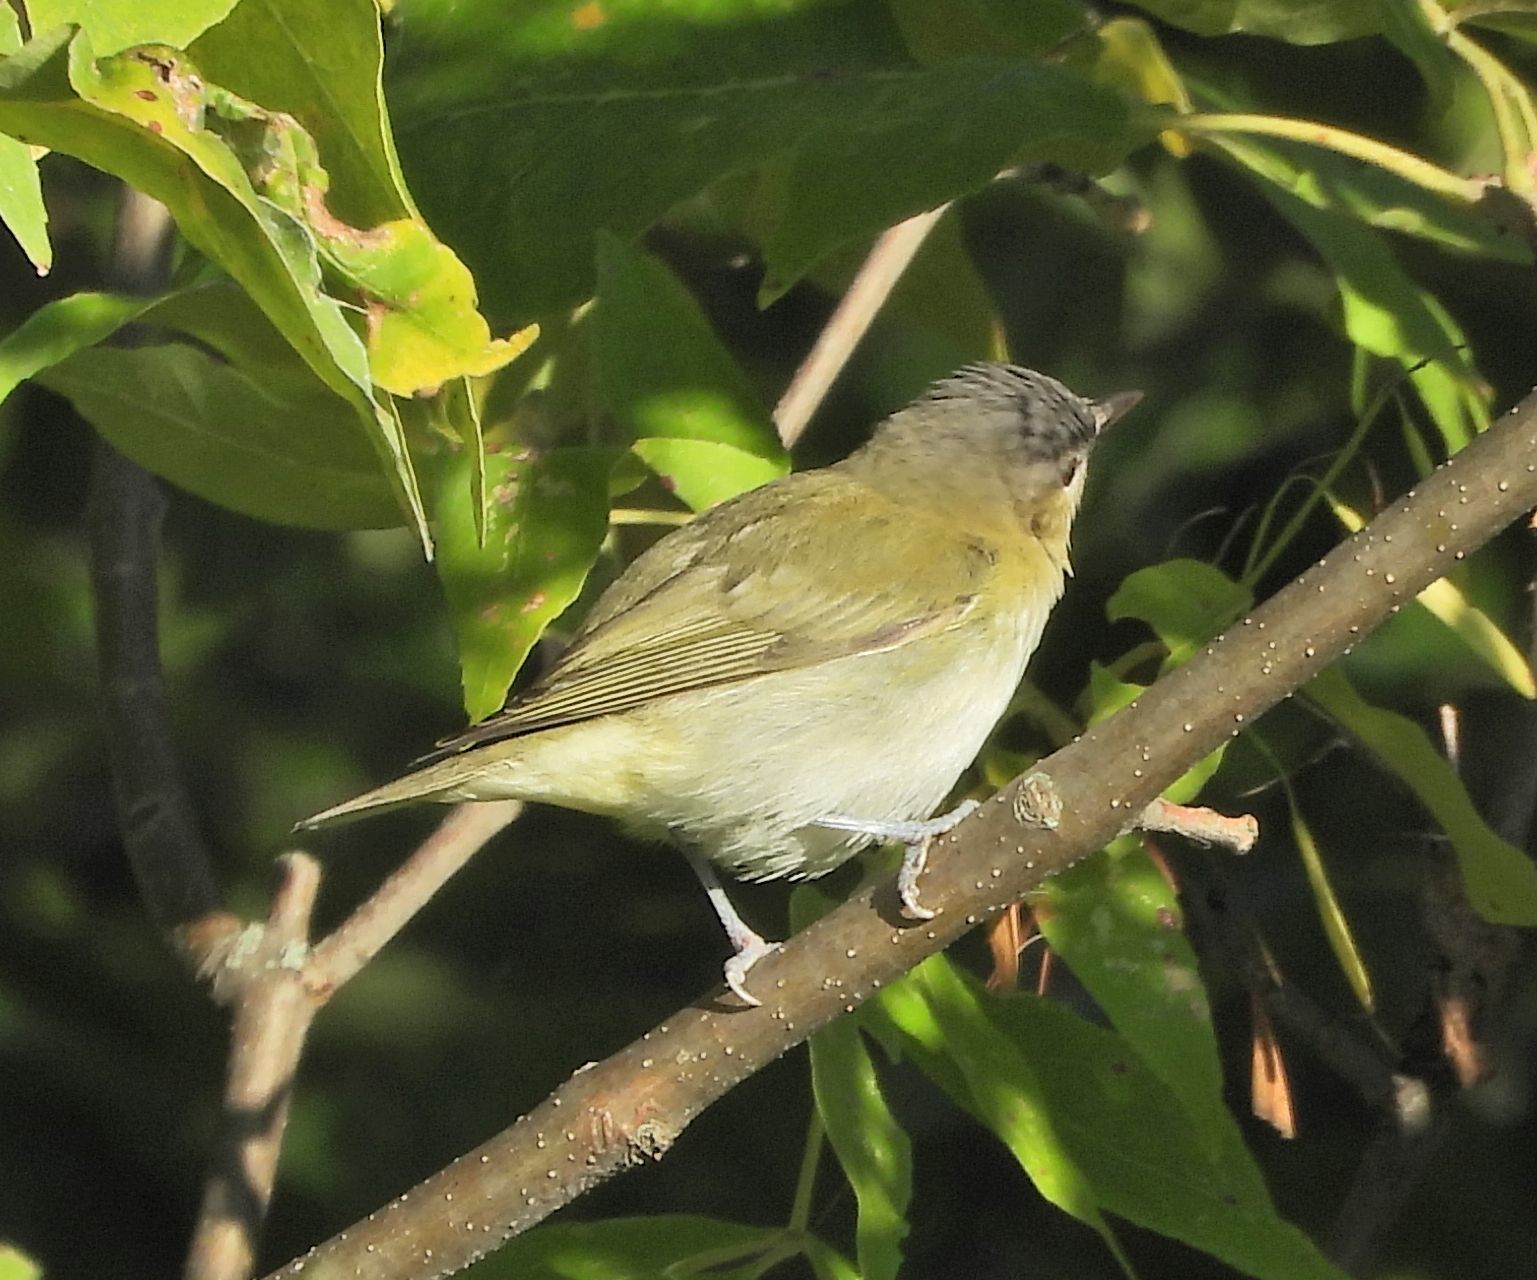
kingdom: Animalia
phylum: Chordata
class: Aves
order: Passeriformes
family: Vireonidae
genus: Vireo
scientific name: Vireo olivaceus
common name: Red-eyed vireo
